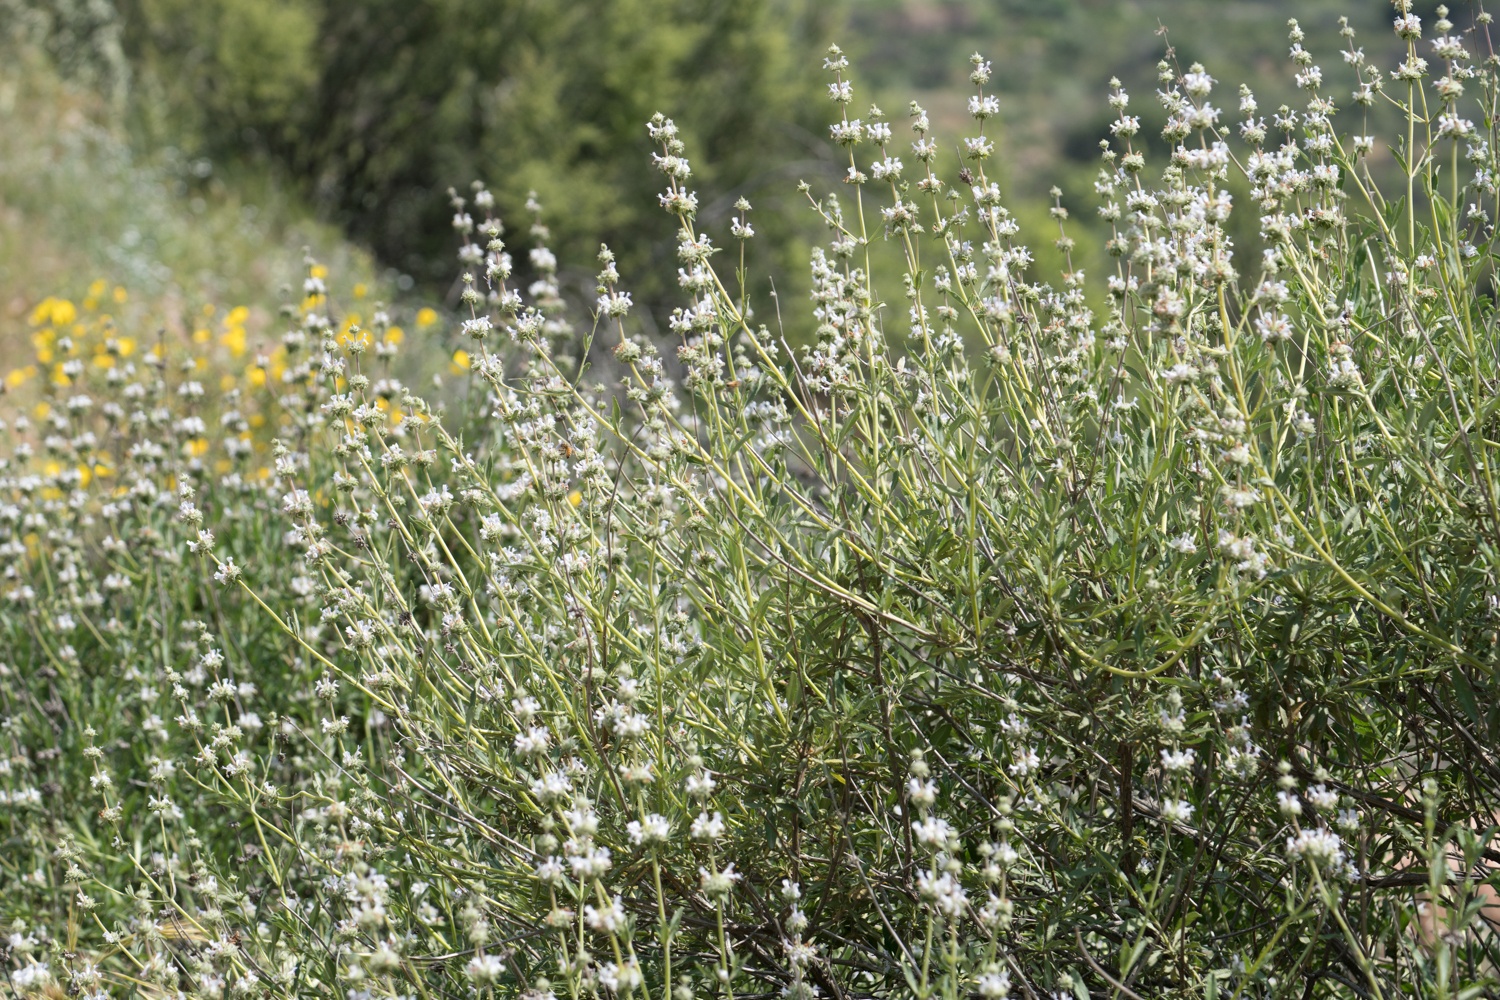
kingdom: Plantae
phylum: Tracheophyta
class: Magnoliopsida
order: Lamiales
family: Lamiaceae
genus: Salvia
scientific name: Salvia mellifera
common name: Black sage
